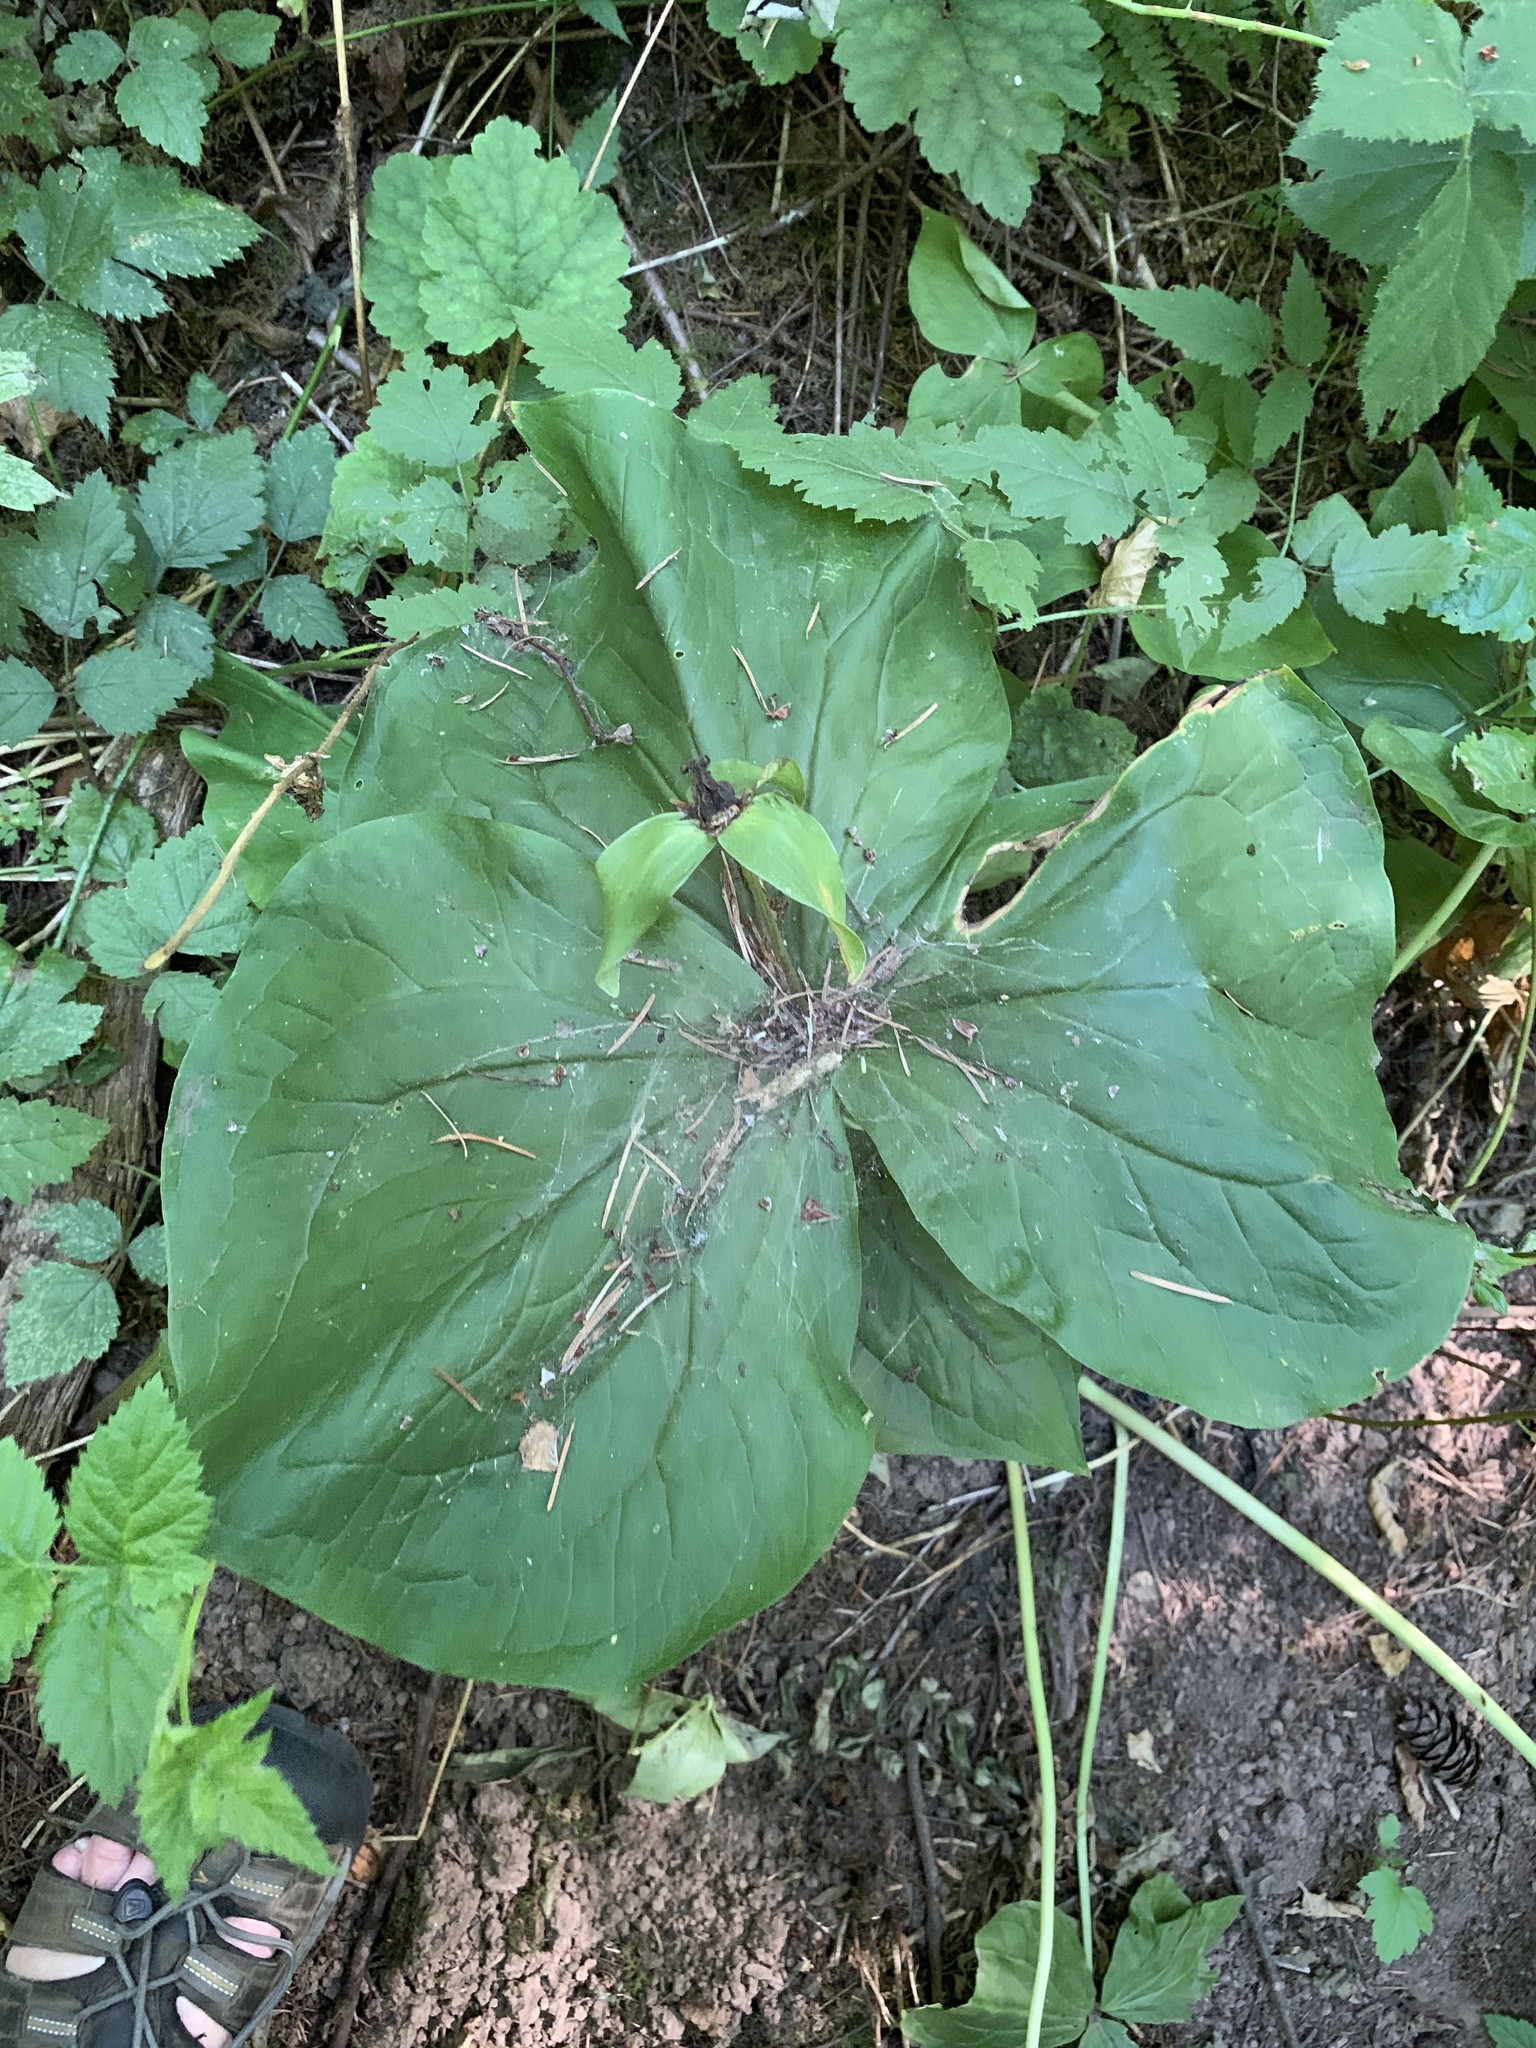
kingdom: Plantae
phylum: Tracheophyta
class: Liliopsida
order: Liliales
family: Melanthiaceae
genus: Trillium
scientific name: Trillium ovatum
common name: Pacific trillium
